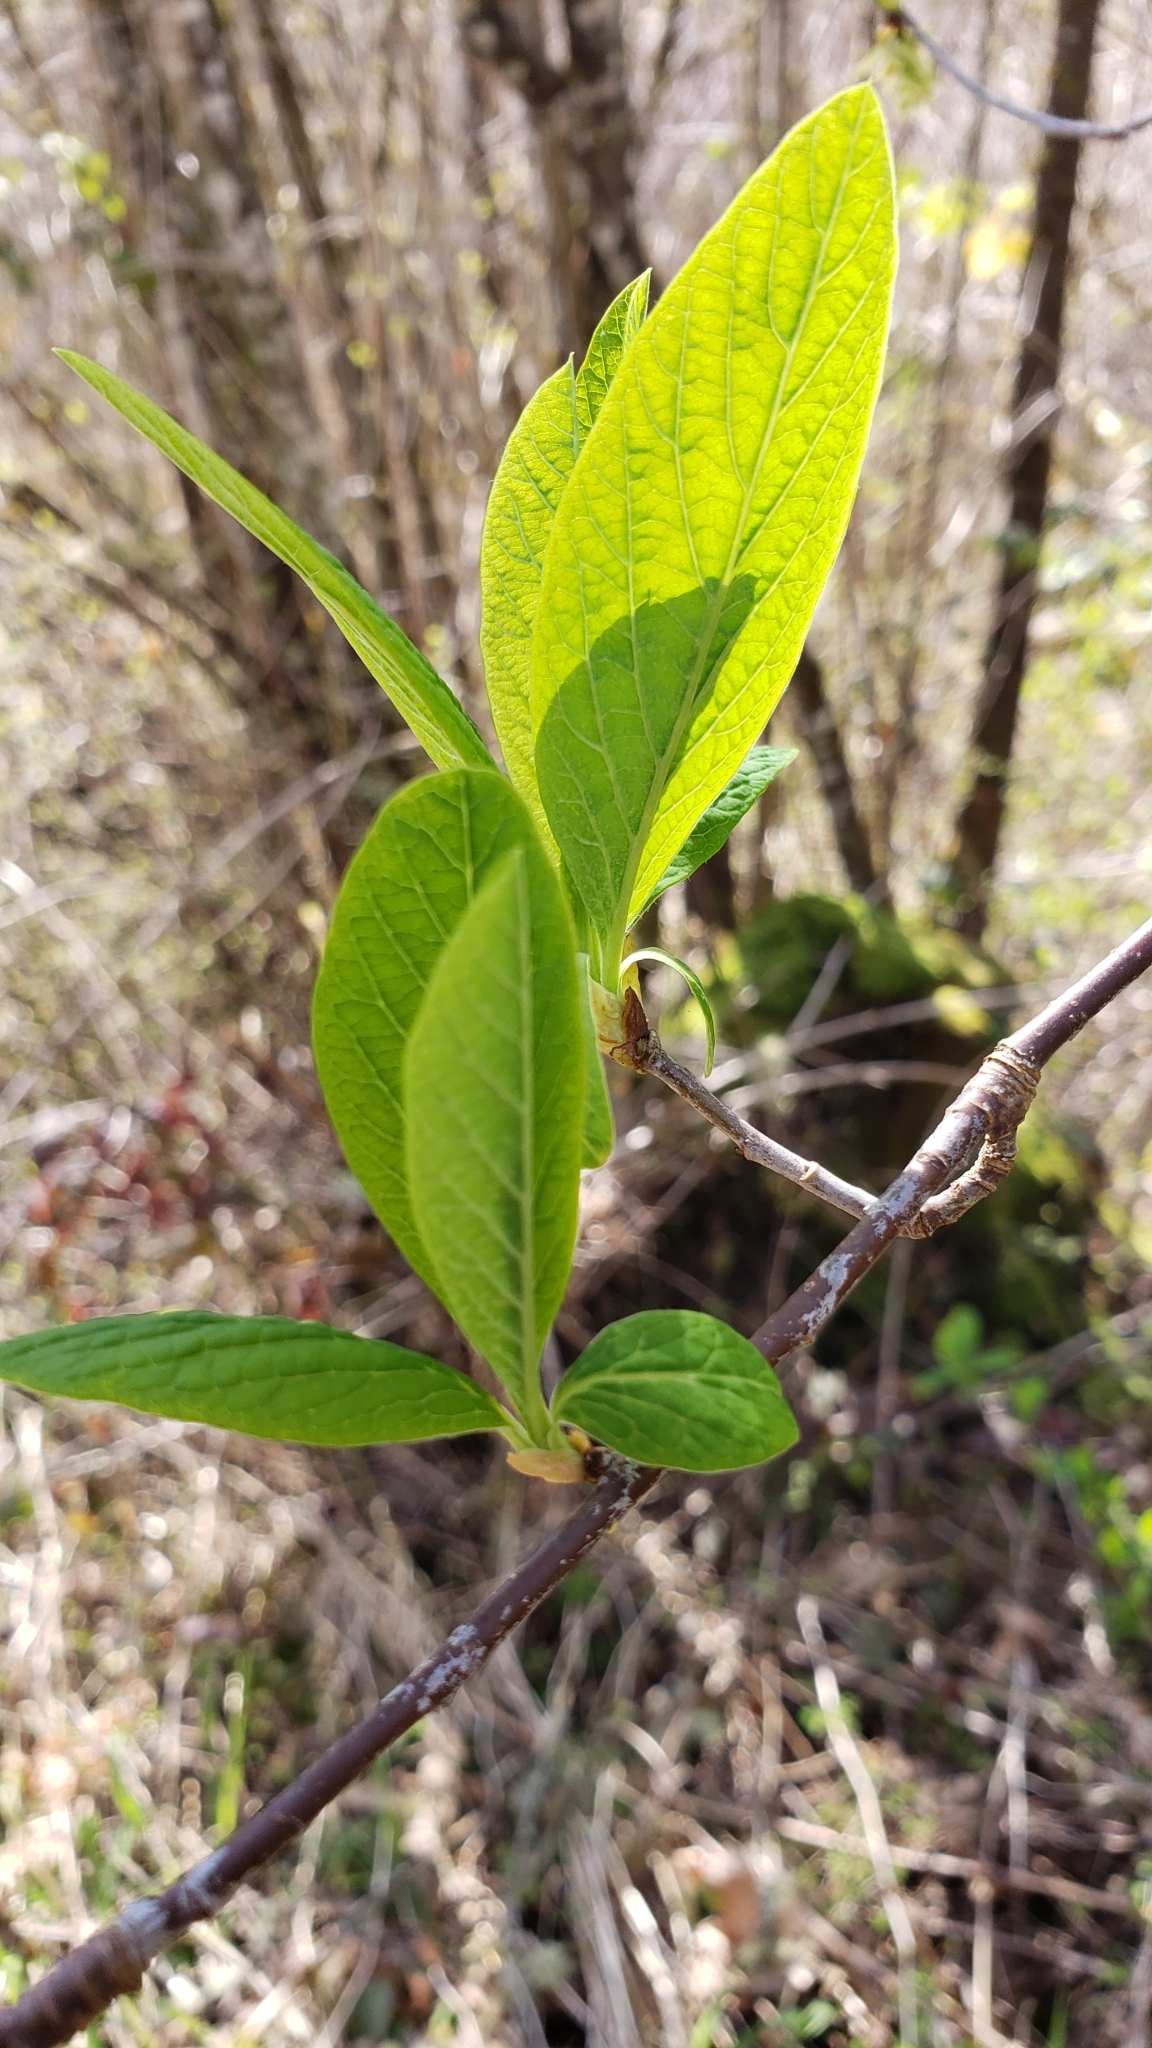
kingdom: Plantae
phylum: Tracheophyta
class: Magnoliopsida
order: Rosales
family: Rosaceae
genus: Oemleria
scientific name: Oemleria cerasiformis
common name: Osoberry
